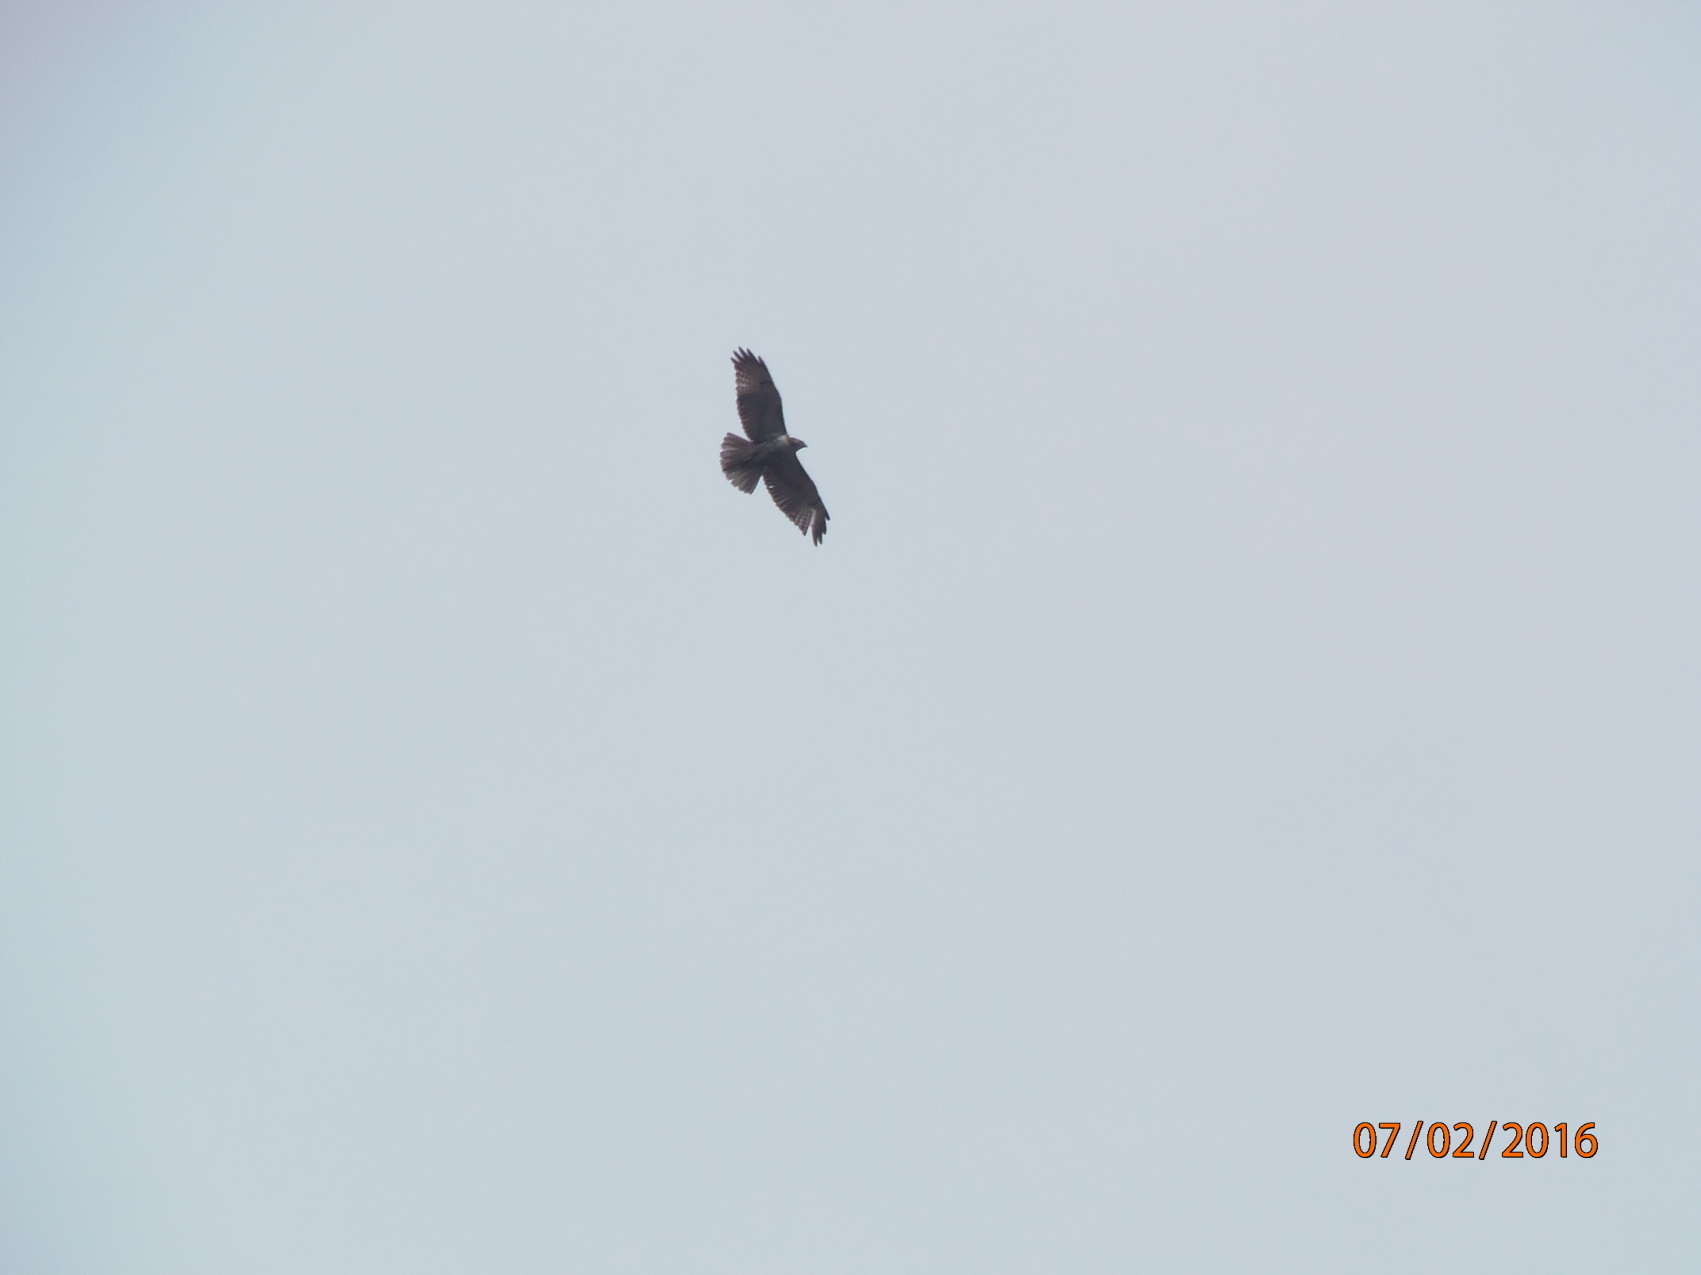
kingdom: Animalia
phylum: Chordata
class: Aves
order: Accipitriformes
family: Accipitridae
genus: Buteo
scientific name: Buteo jamaicensis
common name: Red-tailed hawk
